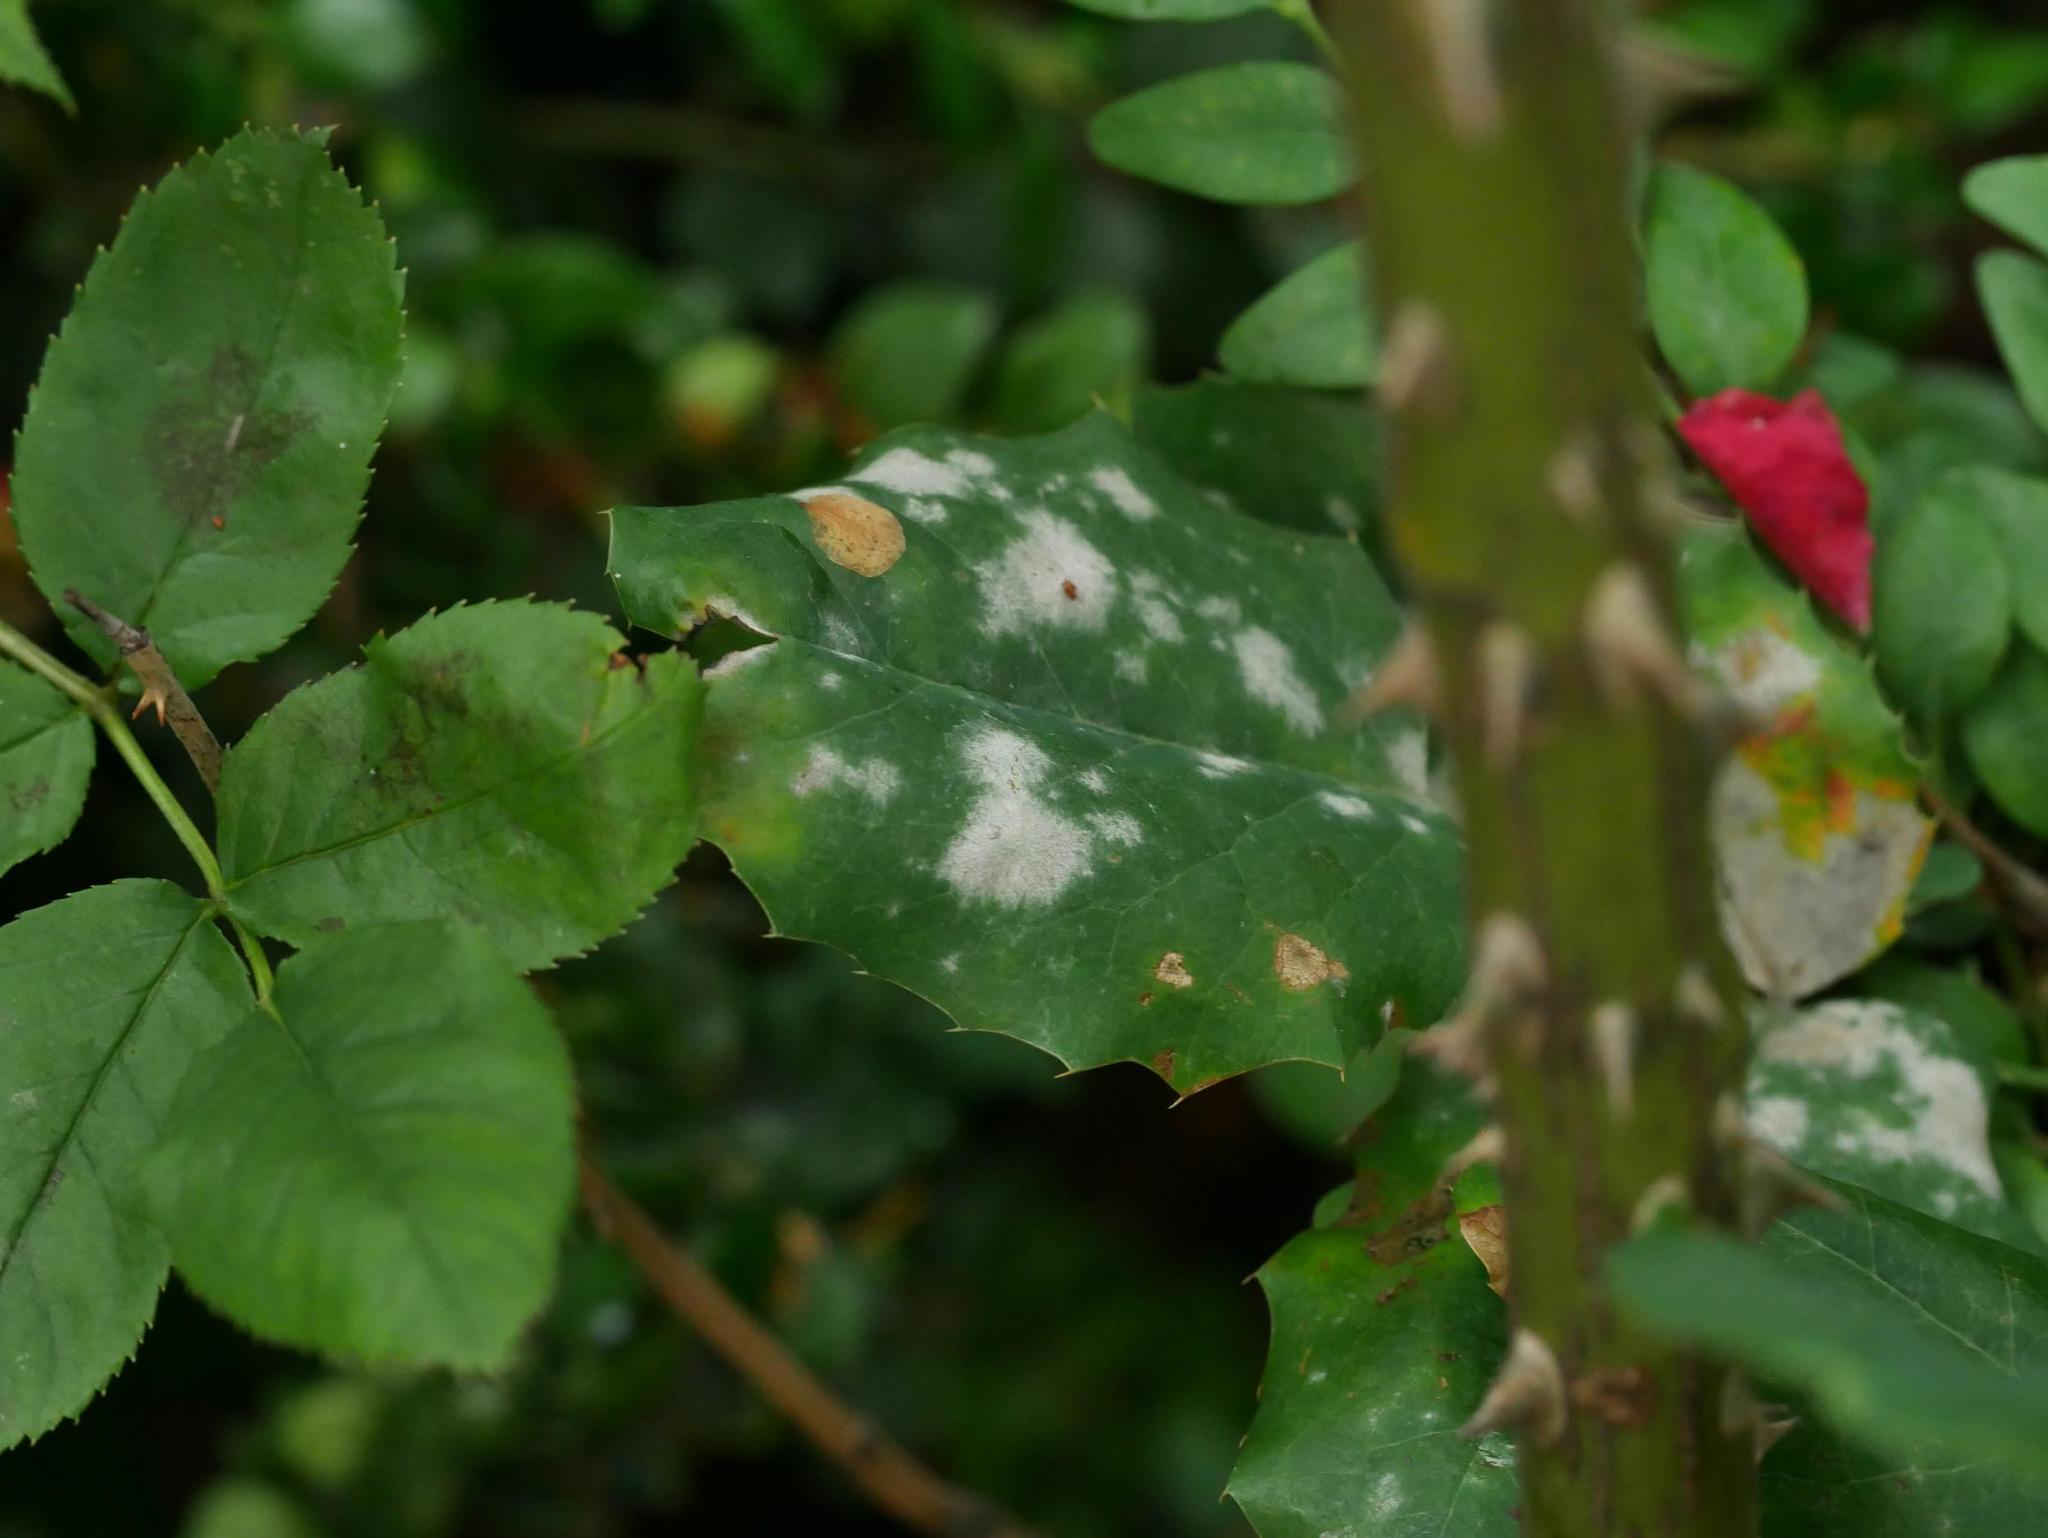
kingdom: Fungi
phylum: Ascomycota
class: Leotiomycetes
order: Helotiales
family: Erysiphaceae
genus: Erysiphe
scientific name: Erysiphe berberidis
